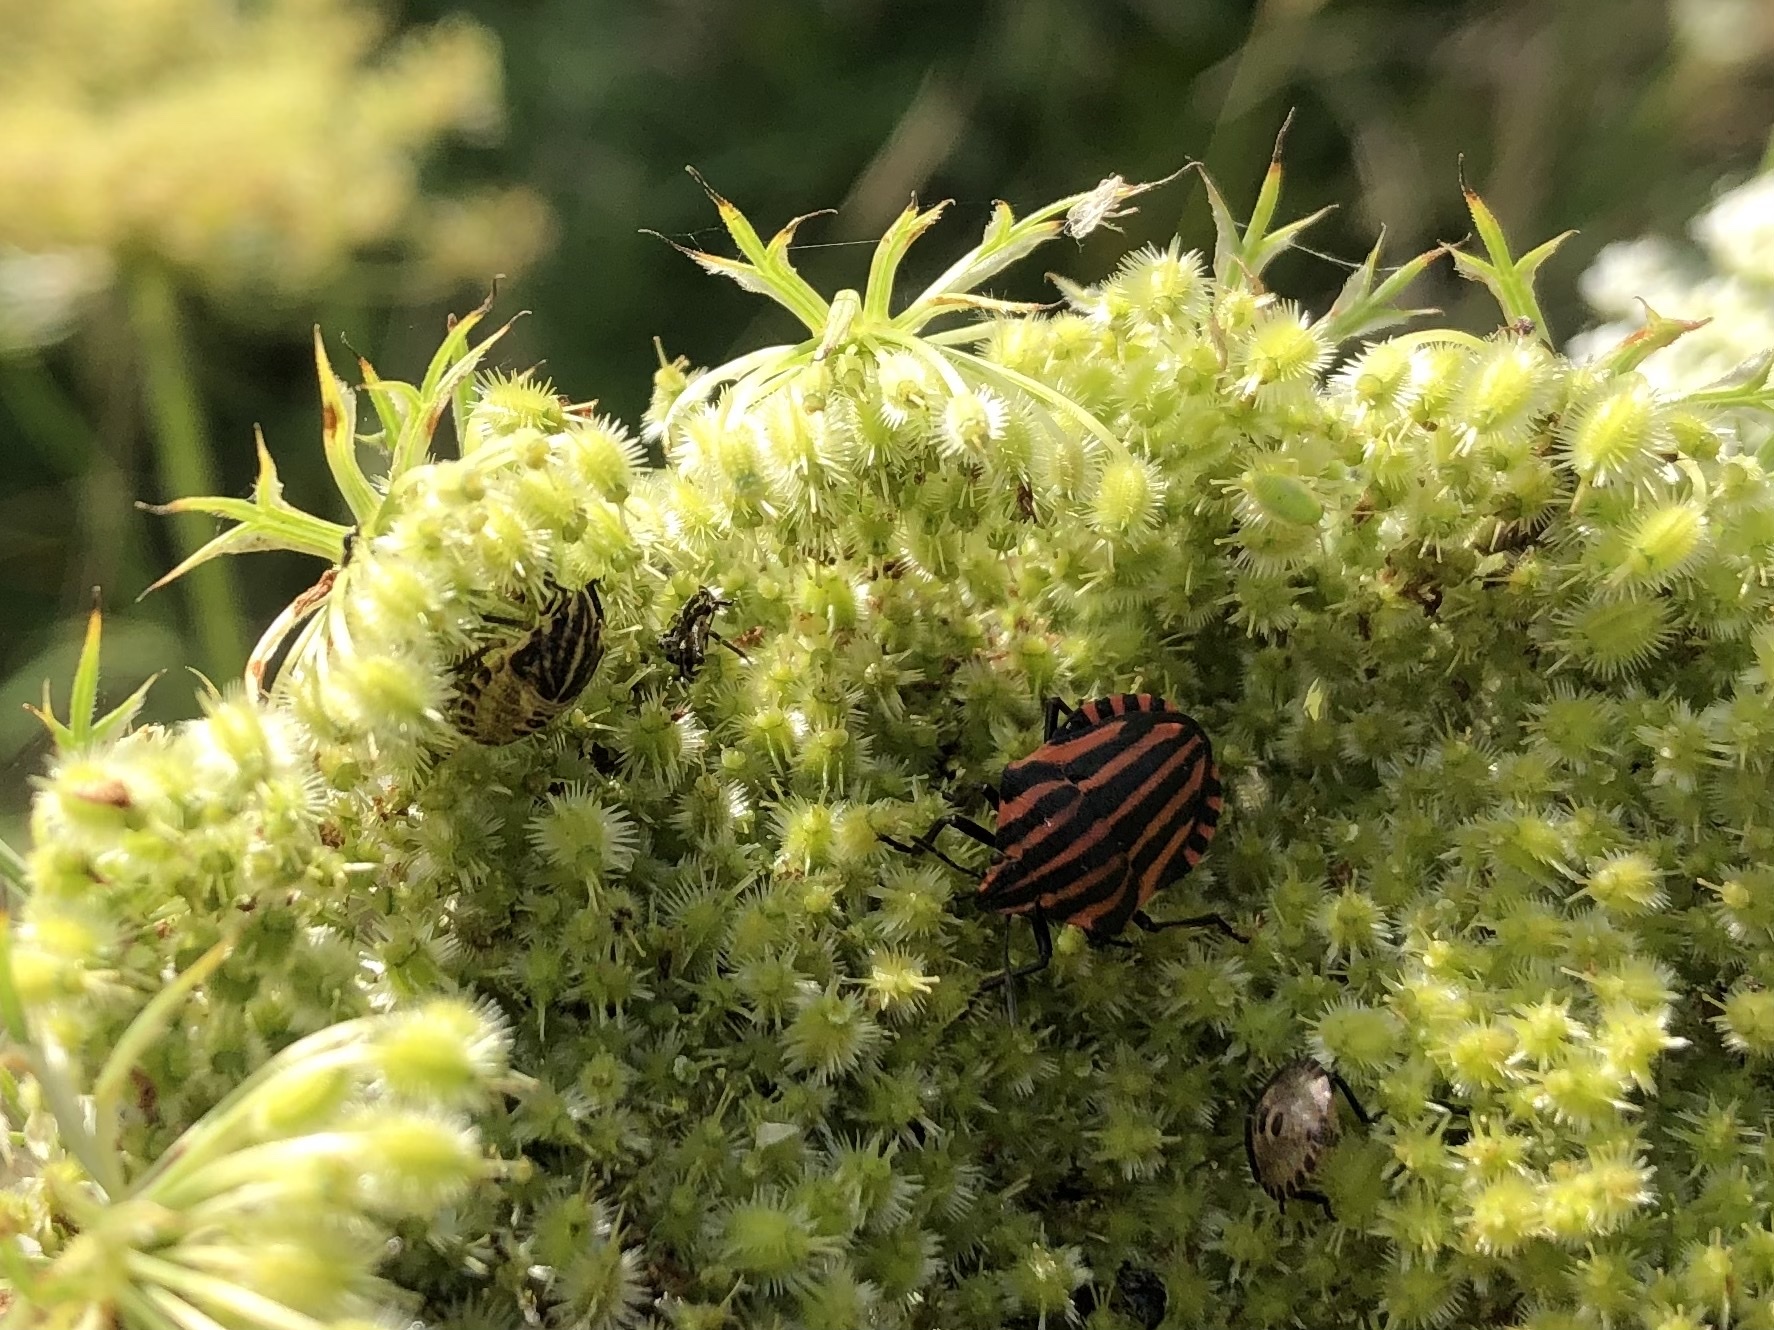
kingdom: Animalia
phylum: Arthropoda
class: Insecta
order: Hemiptera
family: Pentatomidae
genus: Graphosoma
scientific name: Graphosoma italicum
